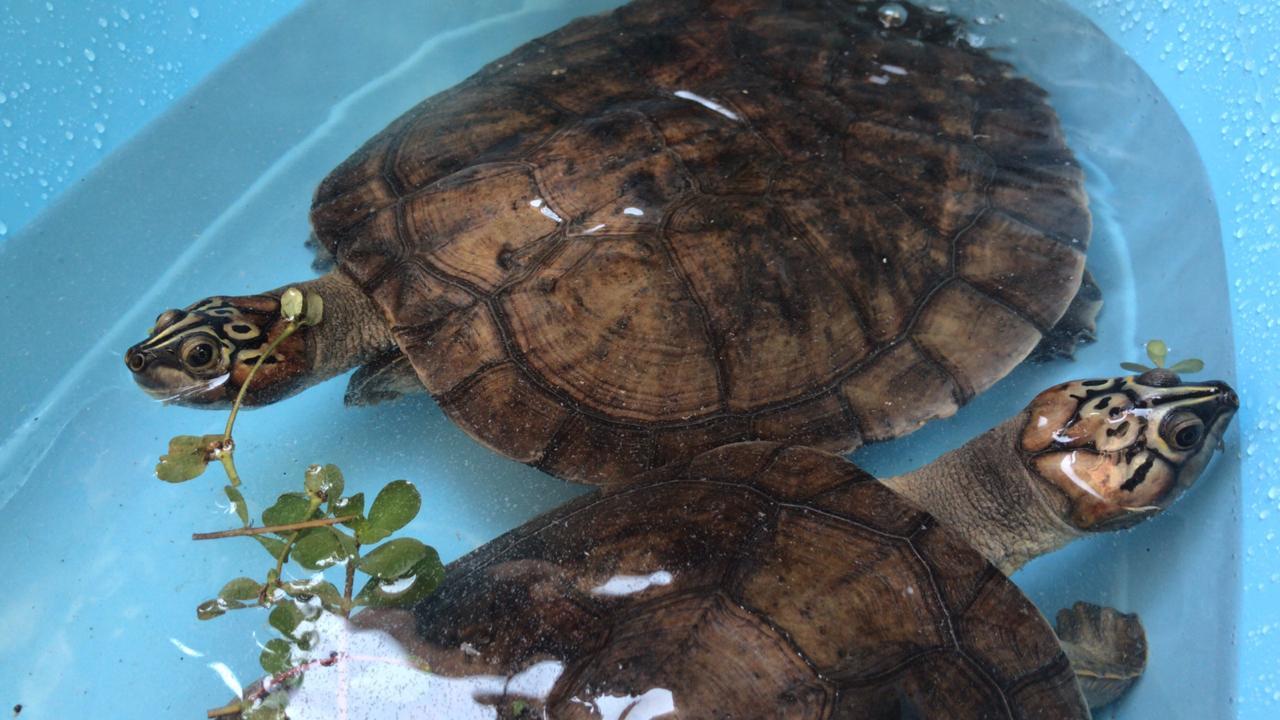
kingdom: Animalia
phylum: Chordata
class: Testudines
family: Podocnemididae
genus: Podocnemis
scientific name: Podocnemis expansa
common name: South american river turtle
